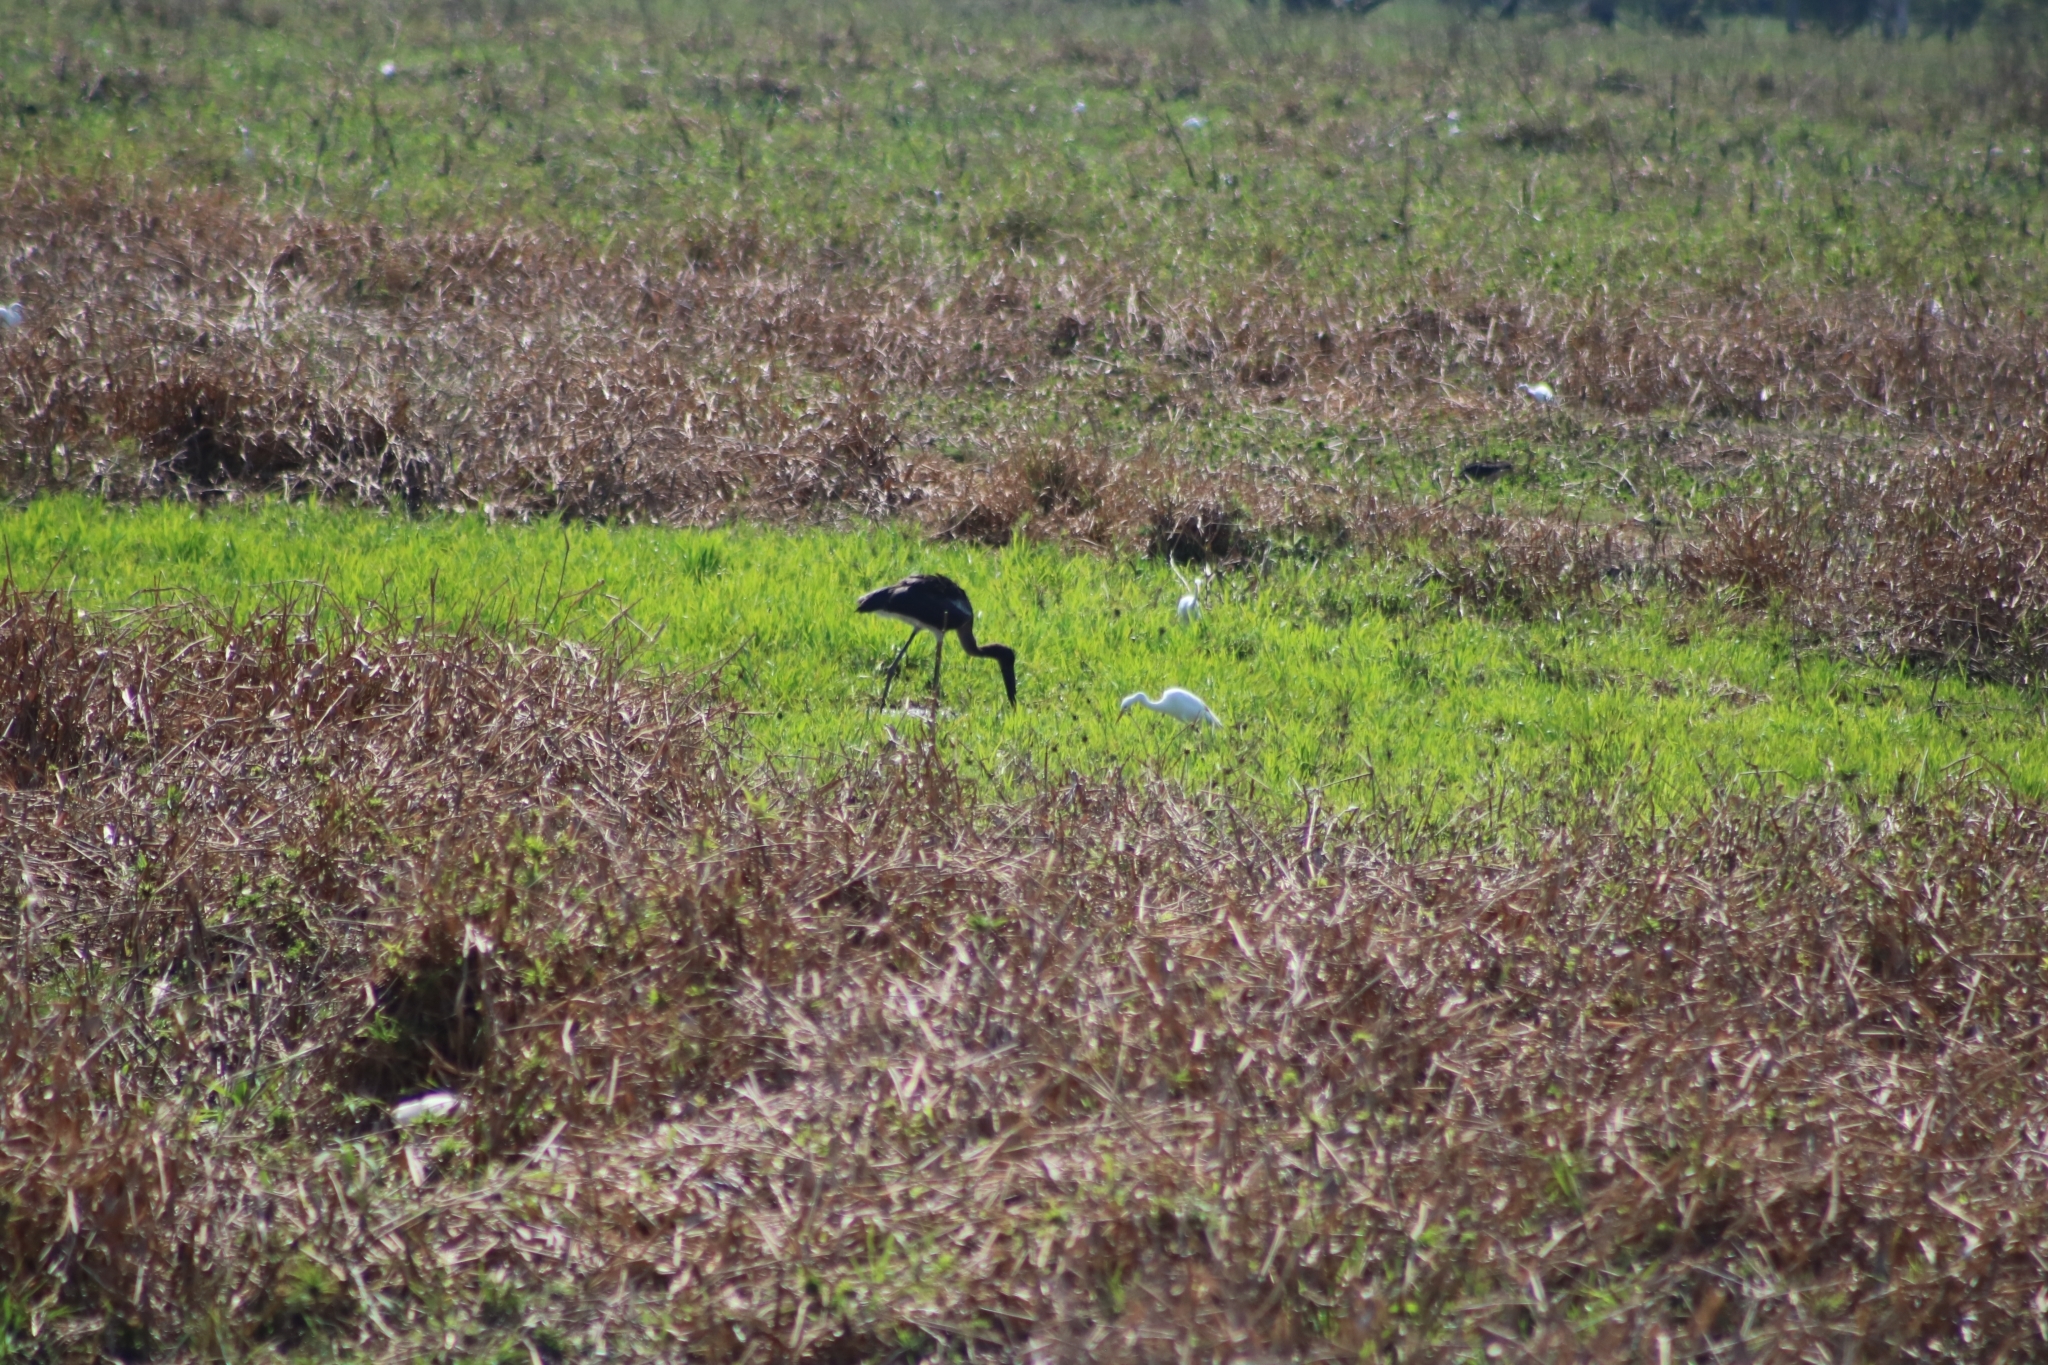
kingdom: Animalia
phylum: Chordata
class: Aves
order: Ciconiiformes
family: Ciconiidae
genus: Ephippiorhynchus
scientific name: Ephippiorhynchus asiaticus
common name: Black-necked stork
